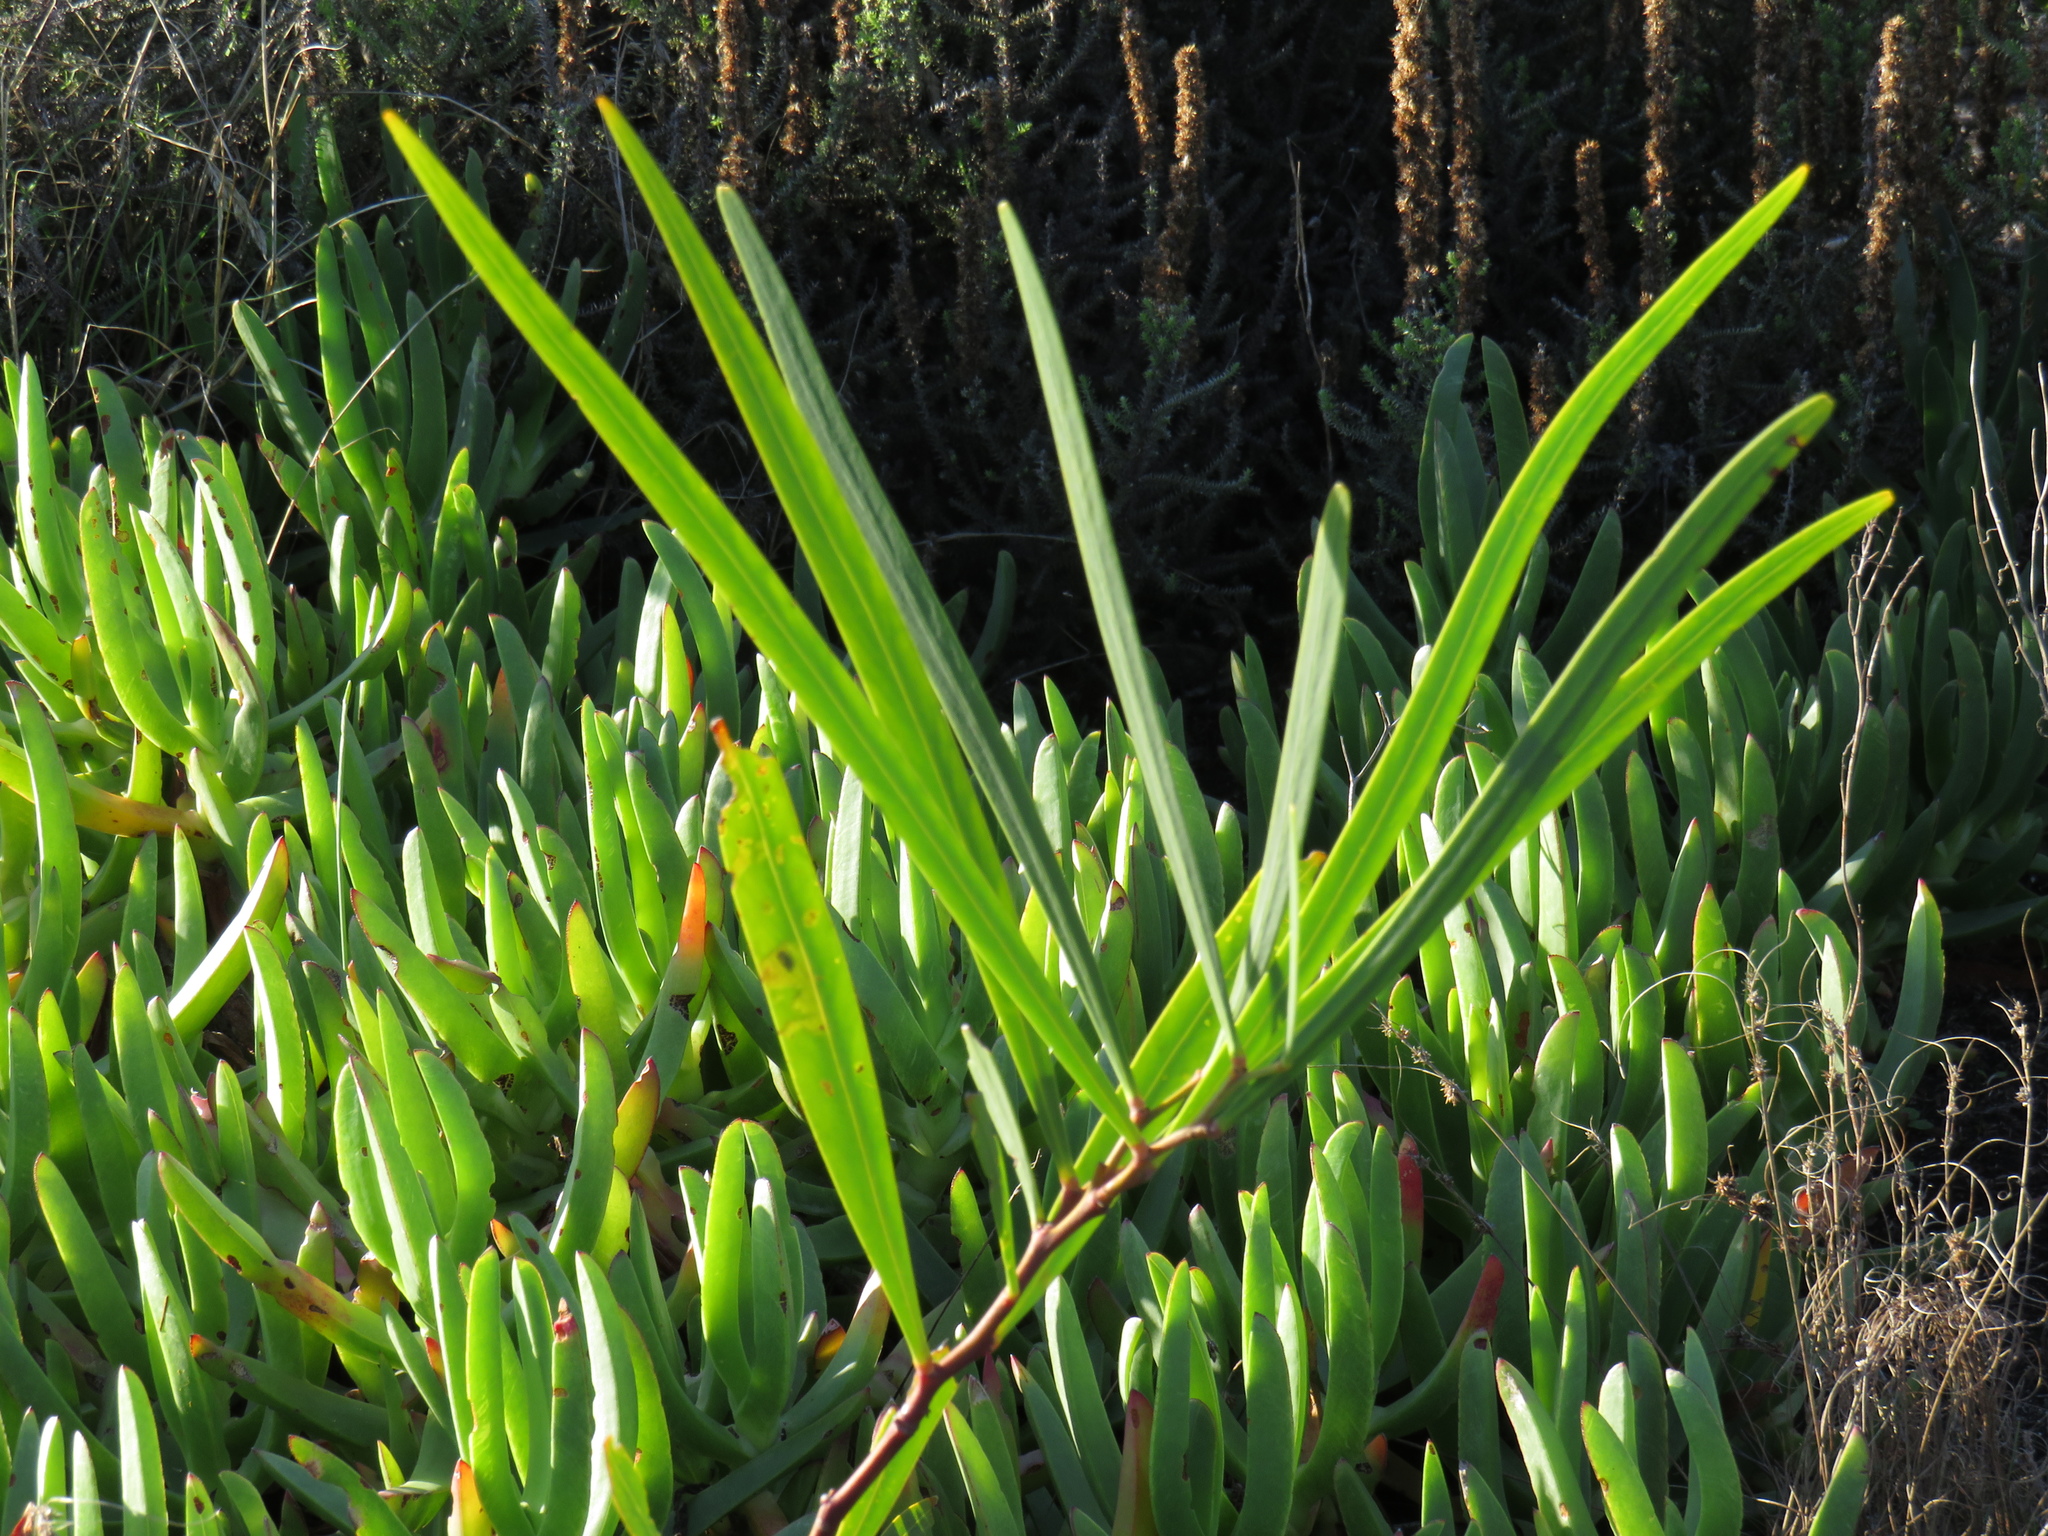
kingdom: Plantae
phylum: Tracheophyta
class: Magnoliopsida
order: Fabales
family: Fabaceae
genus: Acacia
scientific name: Acacia saligna
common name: Orange wattle
